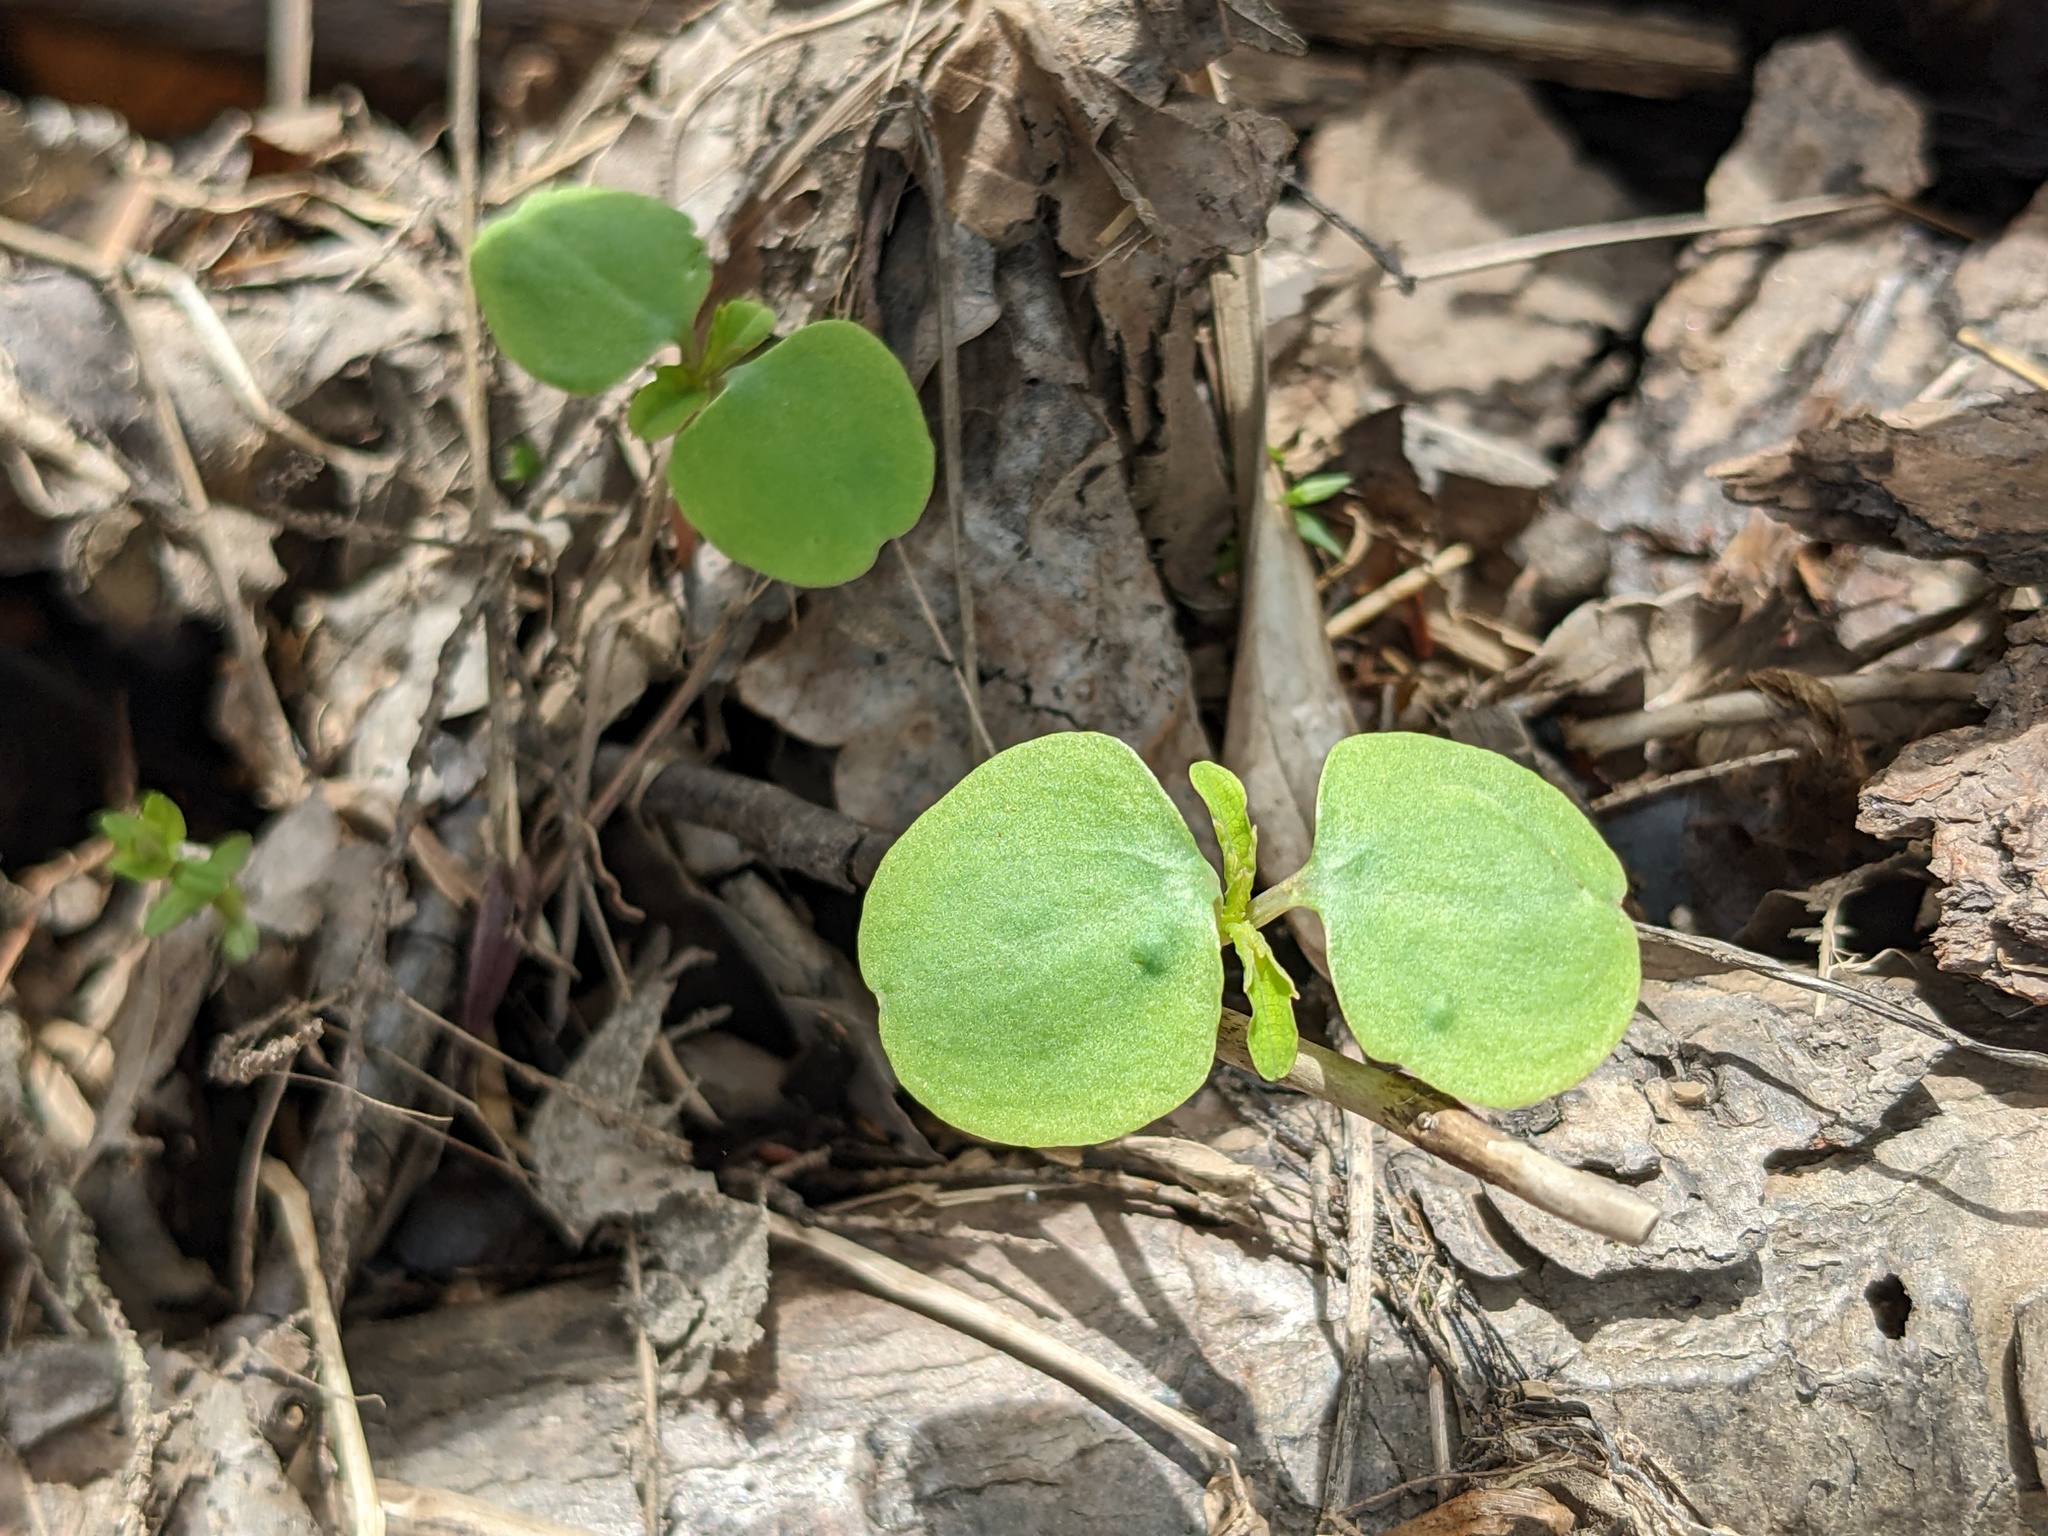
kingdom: Plantae
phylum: Tracheophyta
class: Magnoliopsida
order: Ericales
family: Balsaminaceae
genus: Impatiens
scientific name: Impatiens
